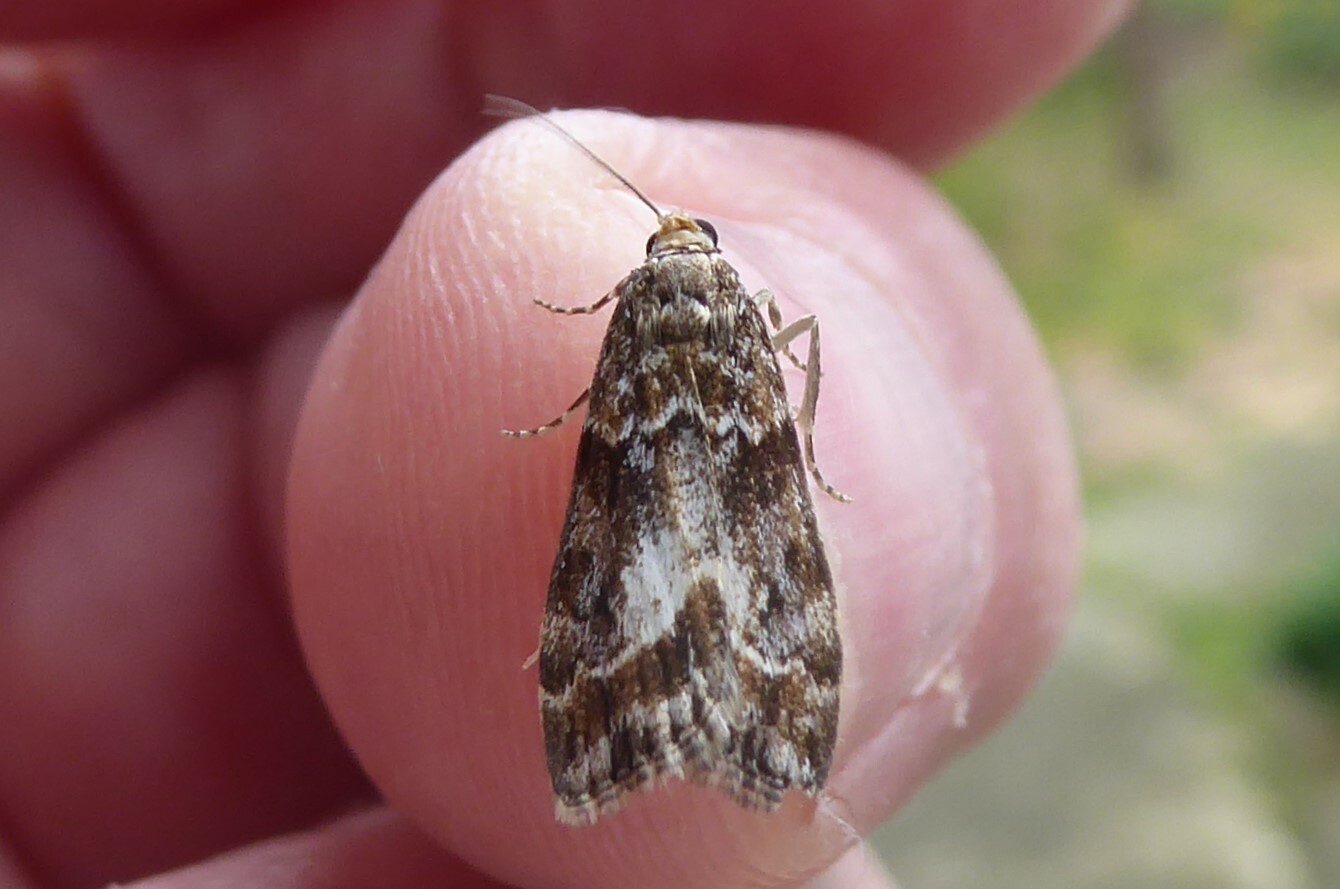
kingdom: Animalia
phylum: Arthropoda
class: Insecta
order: Lepidoptera
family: Crambidae
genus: Eudonia
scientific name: Eudonia legnota
